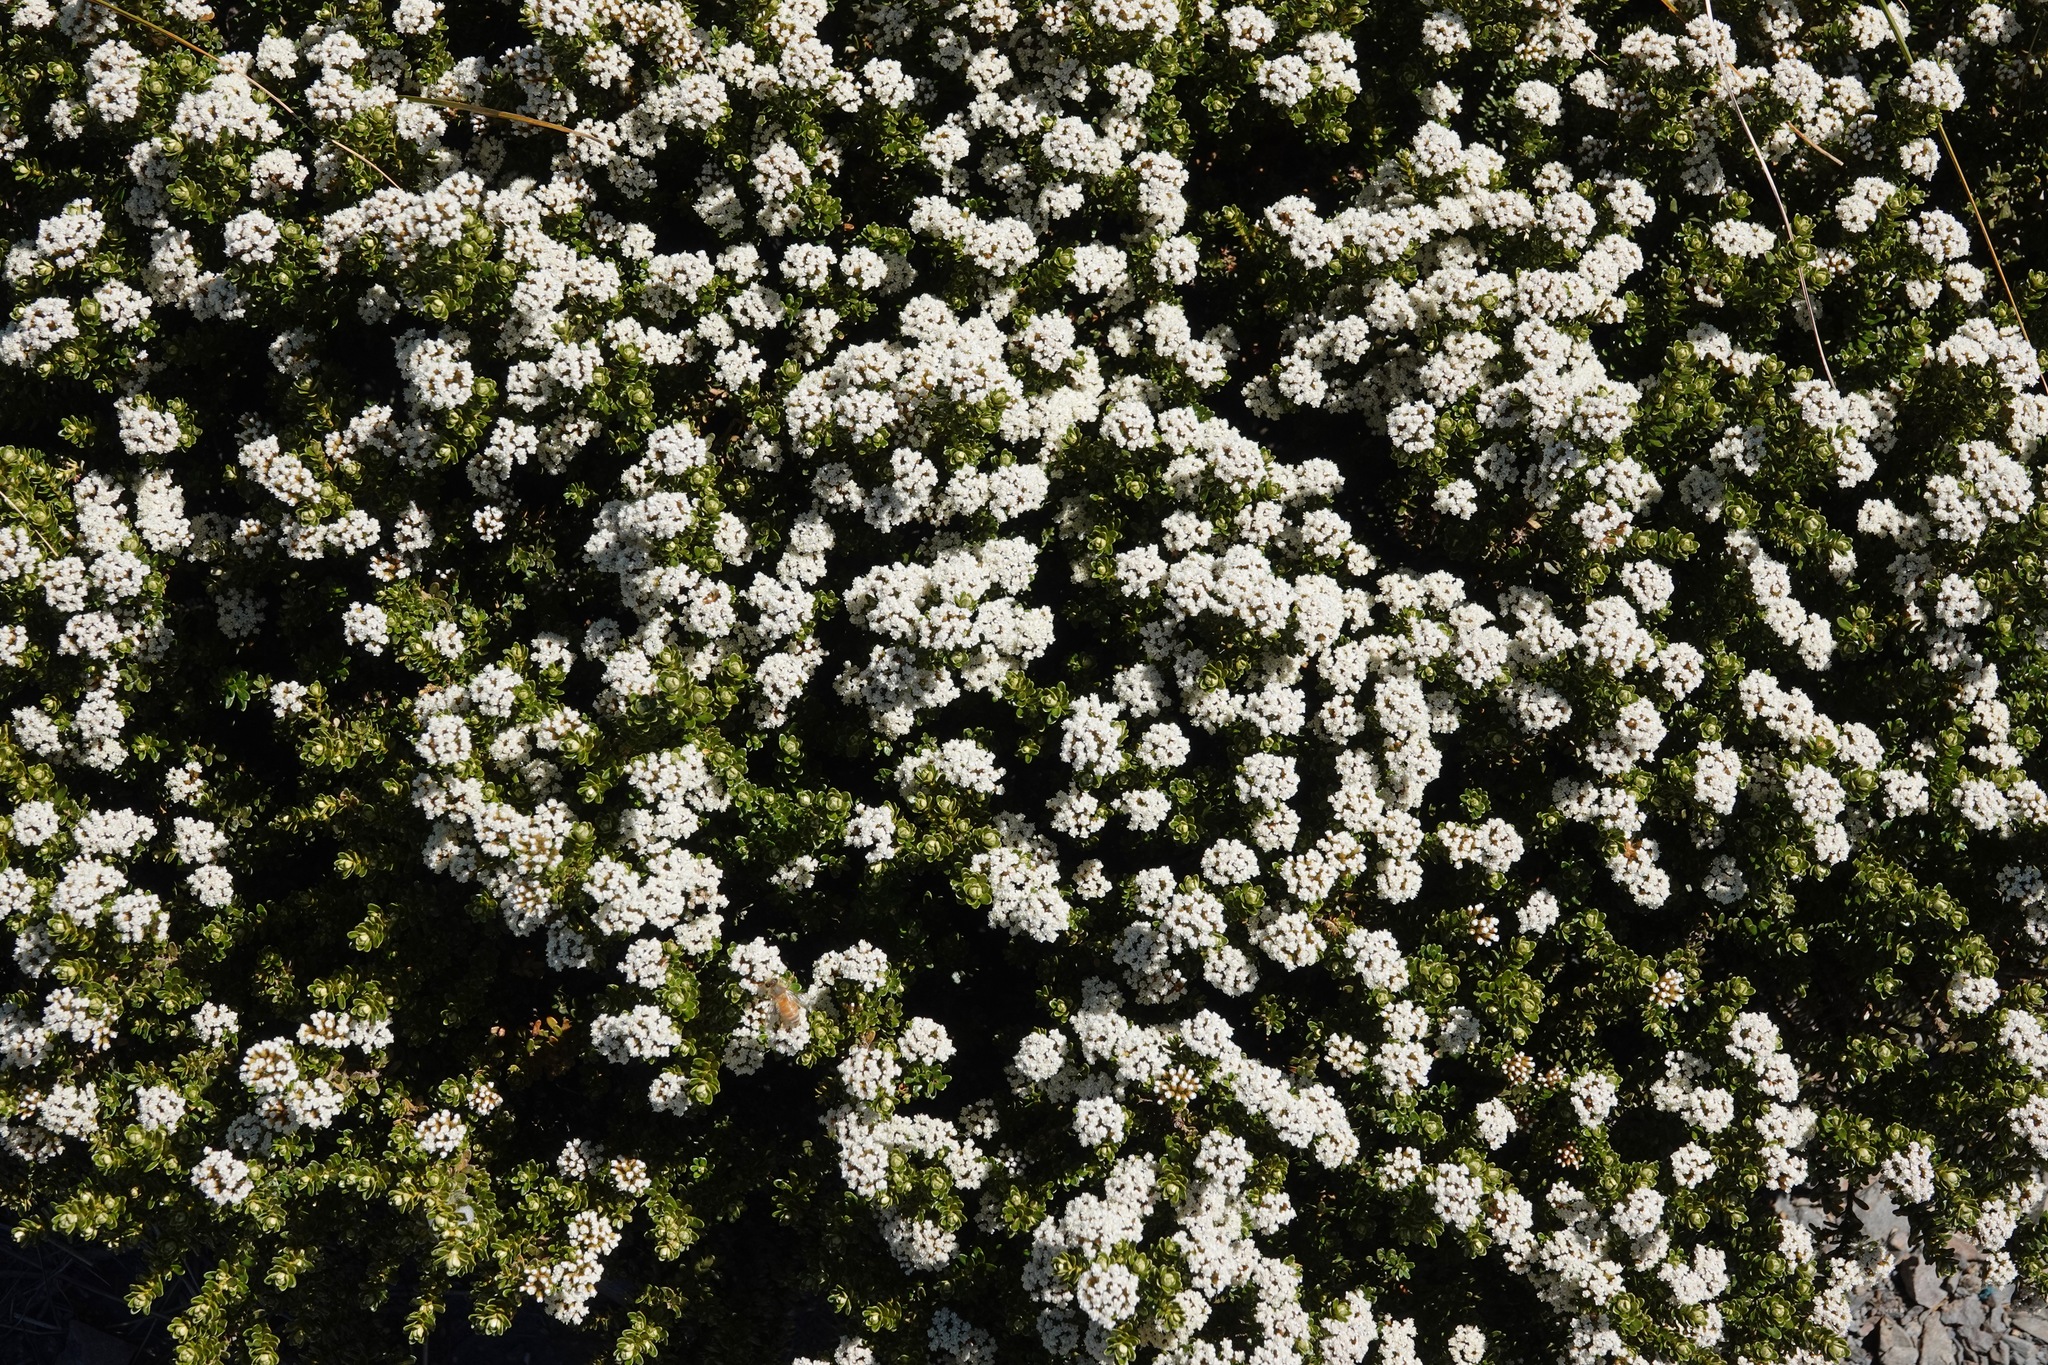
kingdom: Plantae
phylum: Tracheophyta
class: Magnoliopsida
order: Asterales
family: Asteraceae
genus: Ozothamnus
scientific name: Ozothamnus leptophyllus
